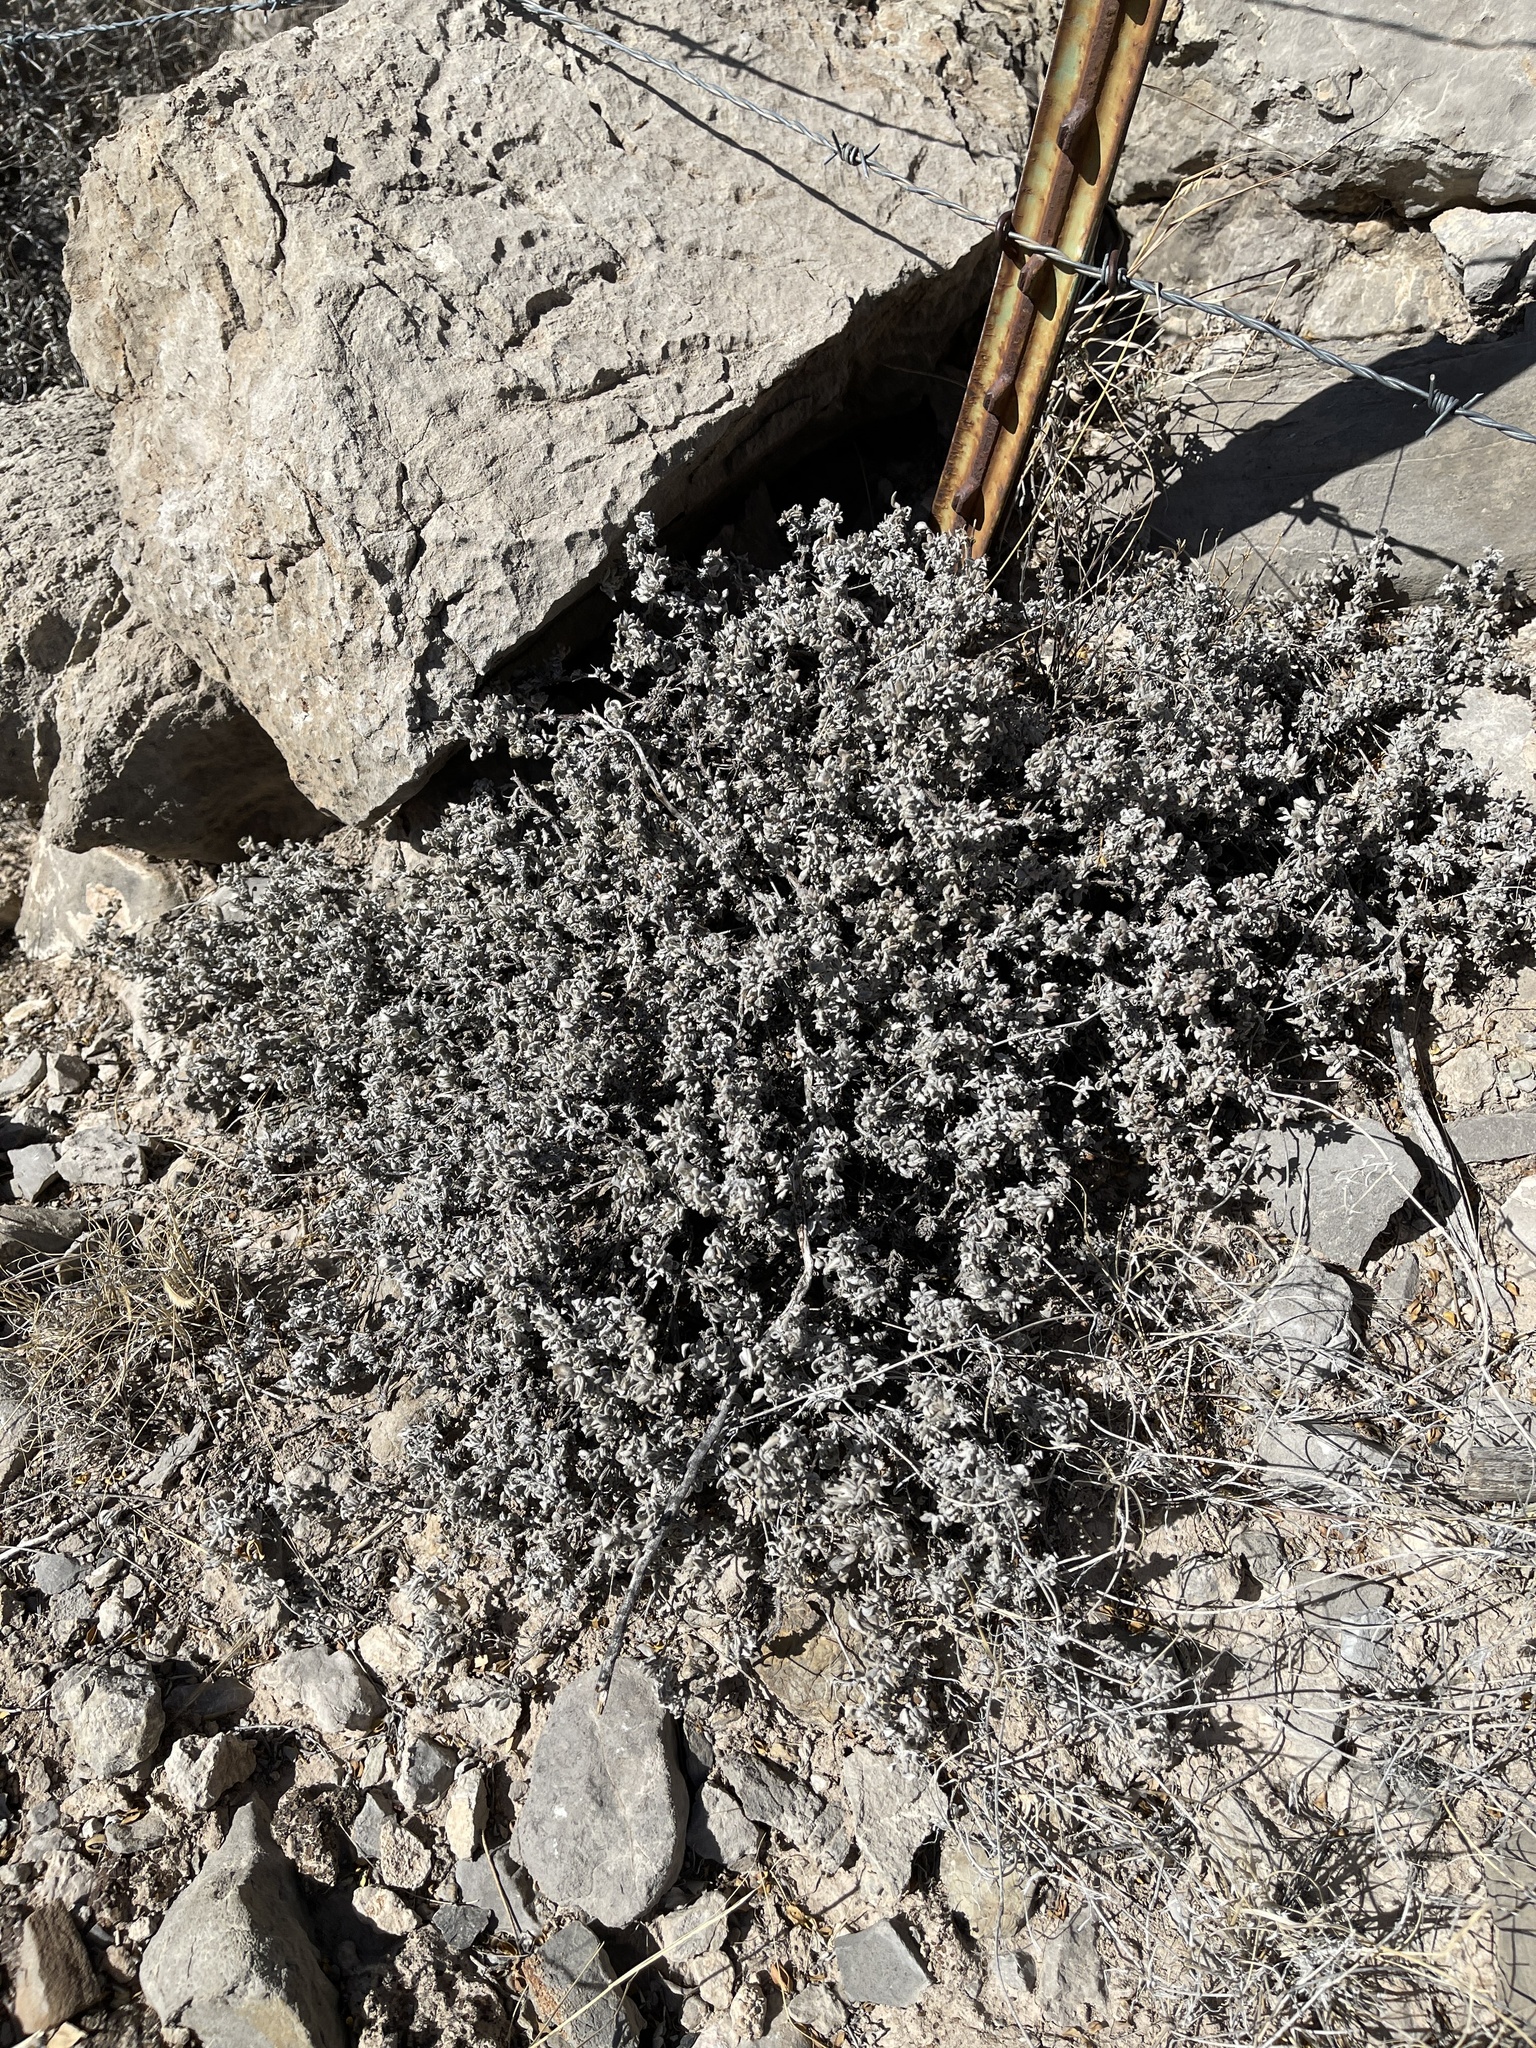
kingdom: Plantae
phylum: Tracheophyta
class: Magnoliopsida
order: Boraginales
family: Ehretiaceae
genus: Tiquilia
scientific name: Tiquilia canescens
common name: Hairy tiquilia
